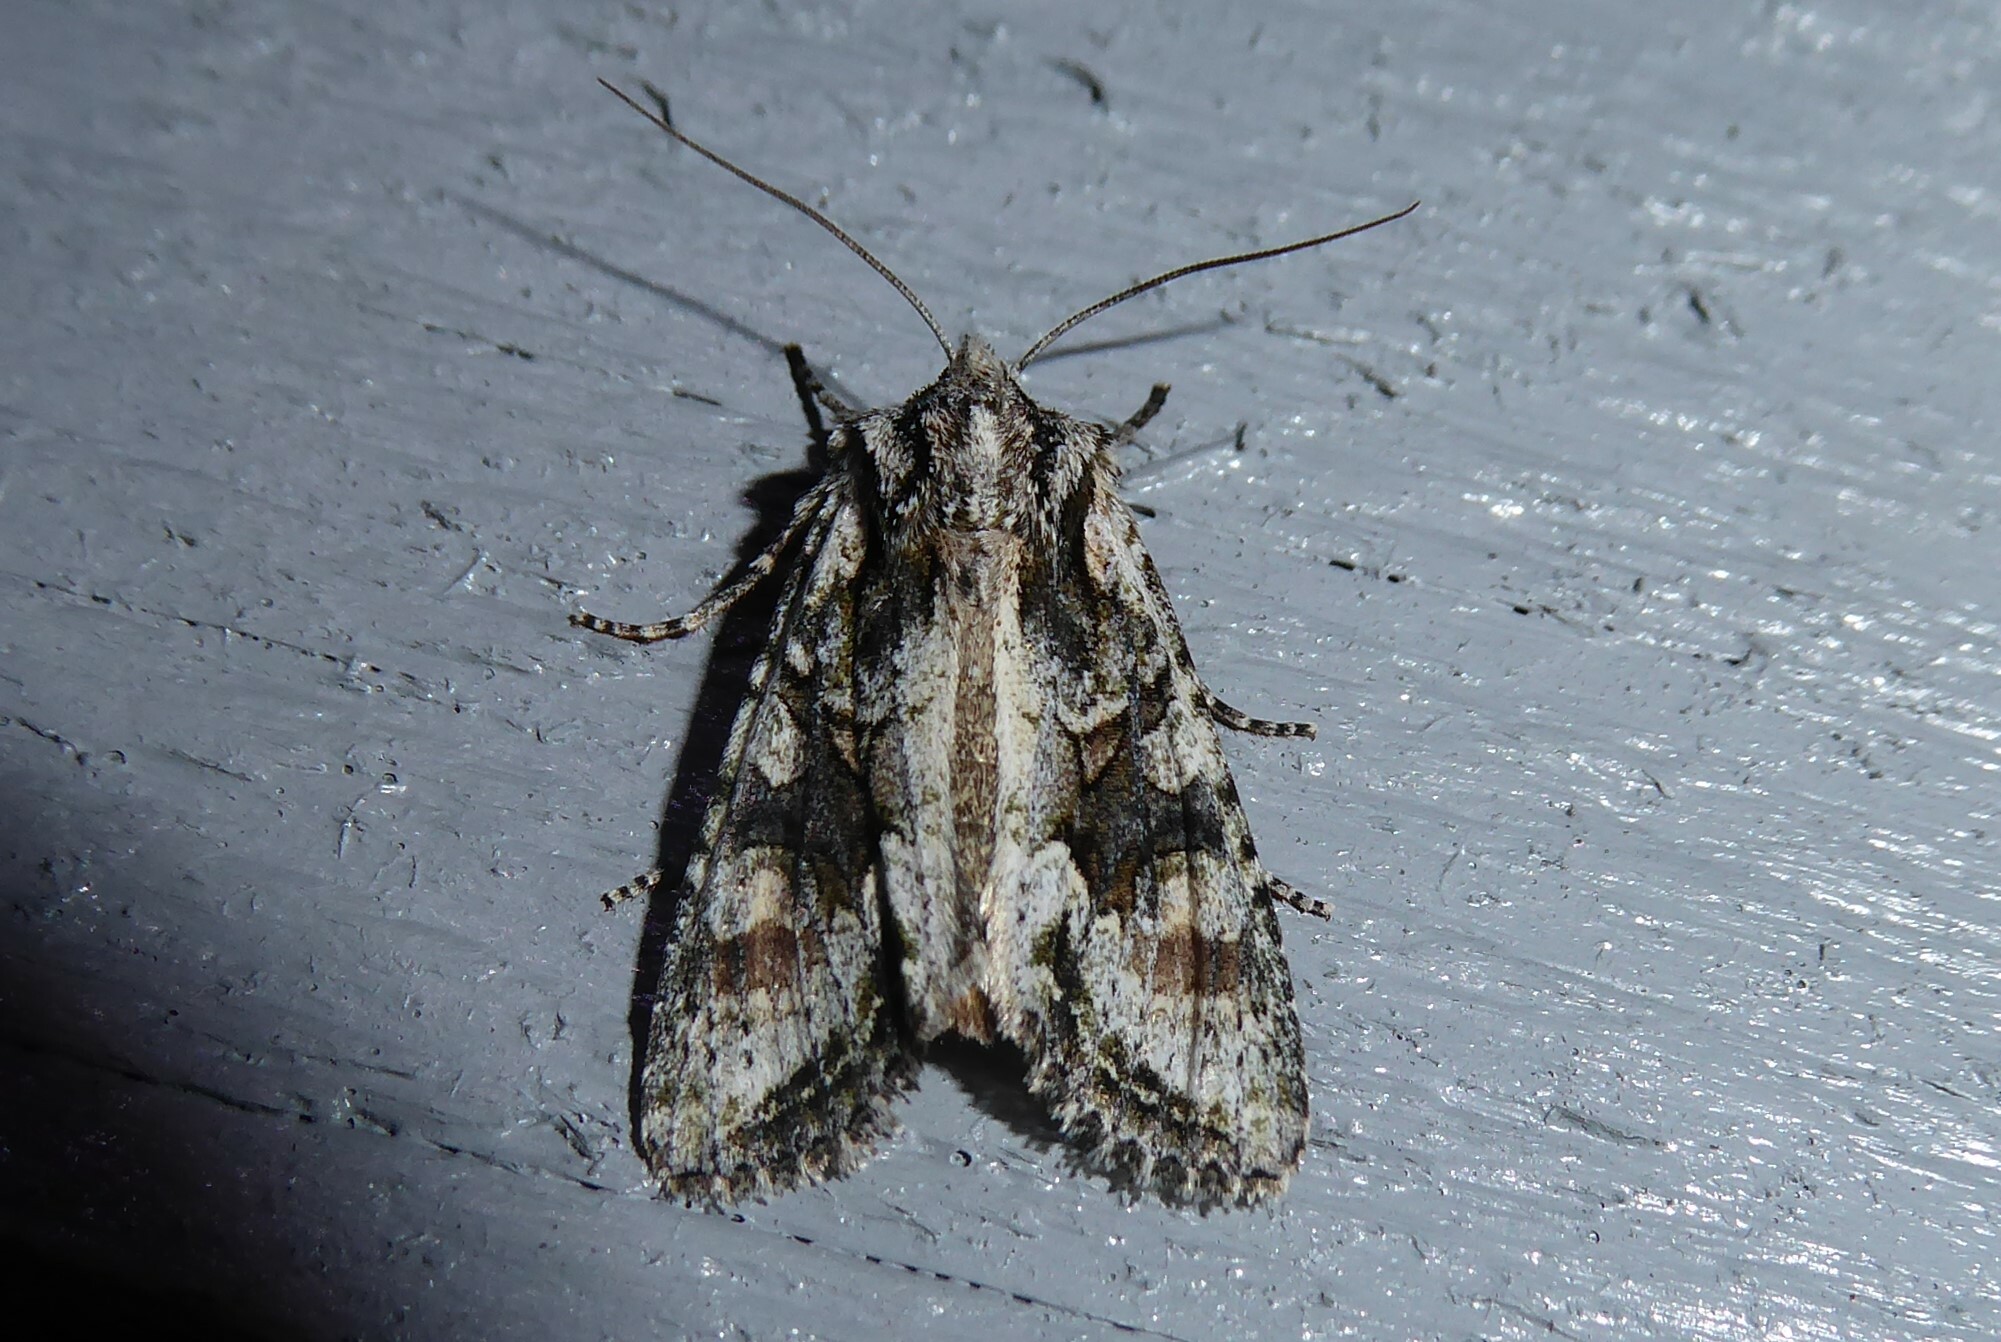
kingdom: Animalia
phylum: Arthropoda
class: Insecta
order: Lepidoptera
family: Noctuidae
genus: Ichneutica
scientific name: Ichneutica mutans
